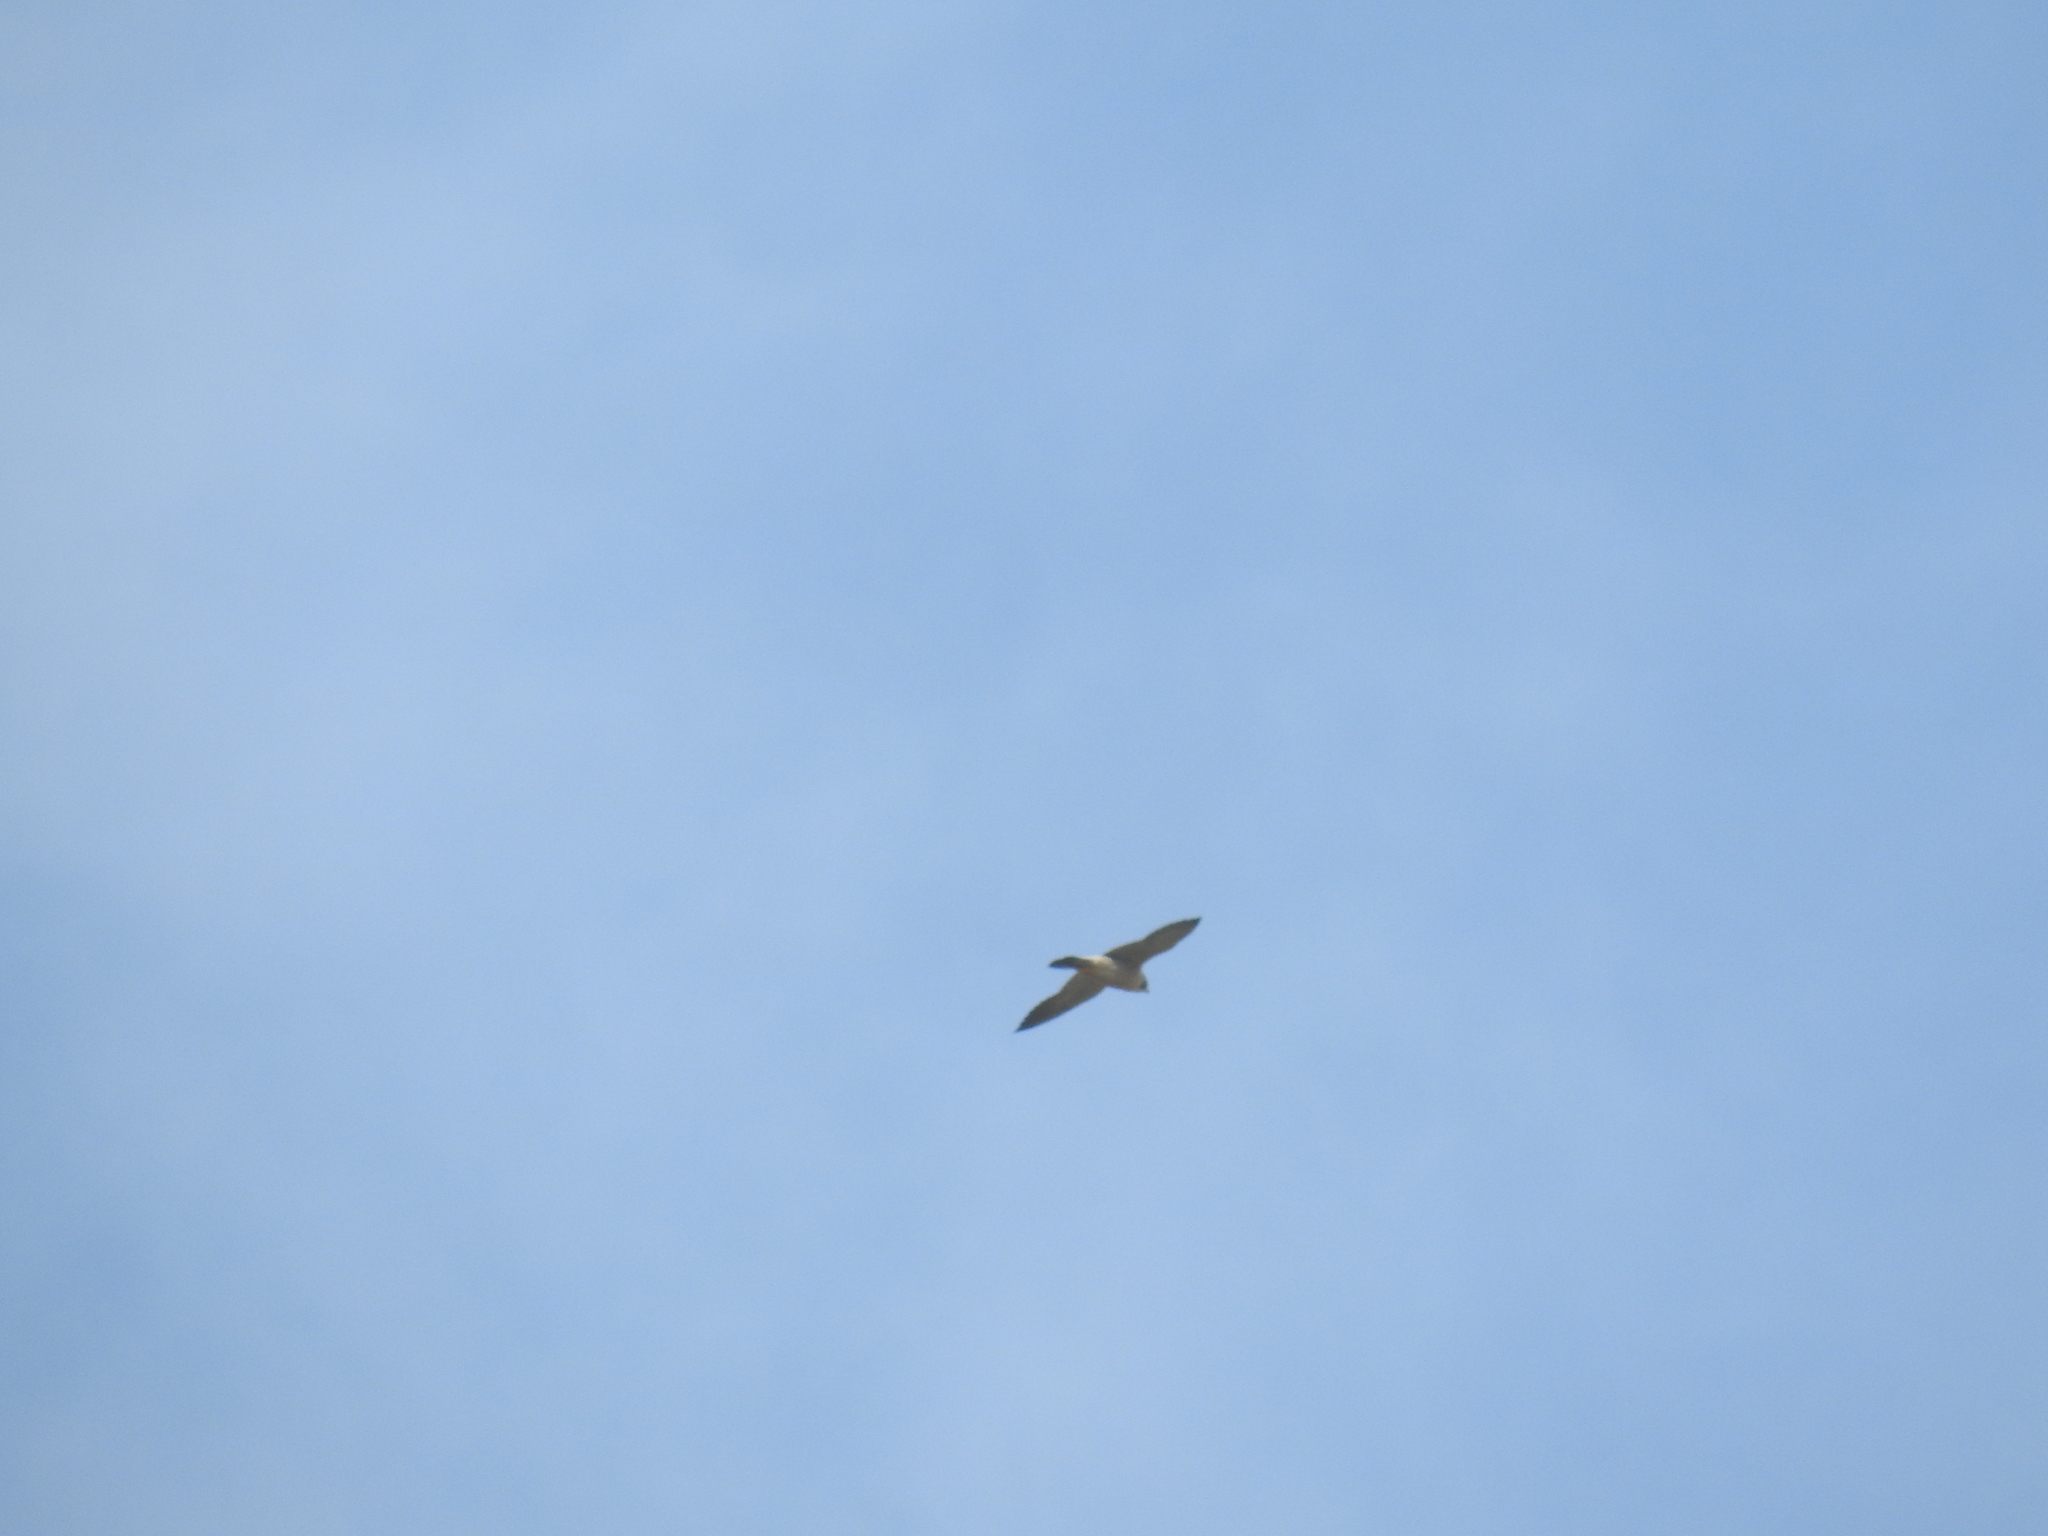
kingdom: Animalia
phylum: Chordata
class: Aves
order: Falconiformes
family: Falconidae
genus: Falco
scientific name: Falco peregrinus
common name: Peregrine falcon
